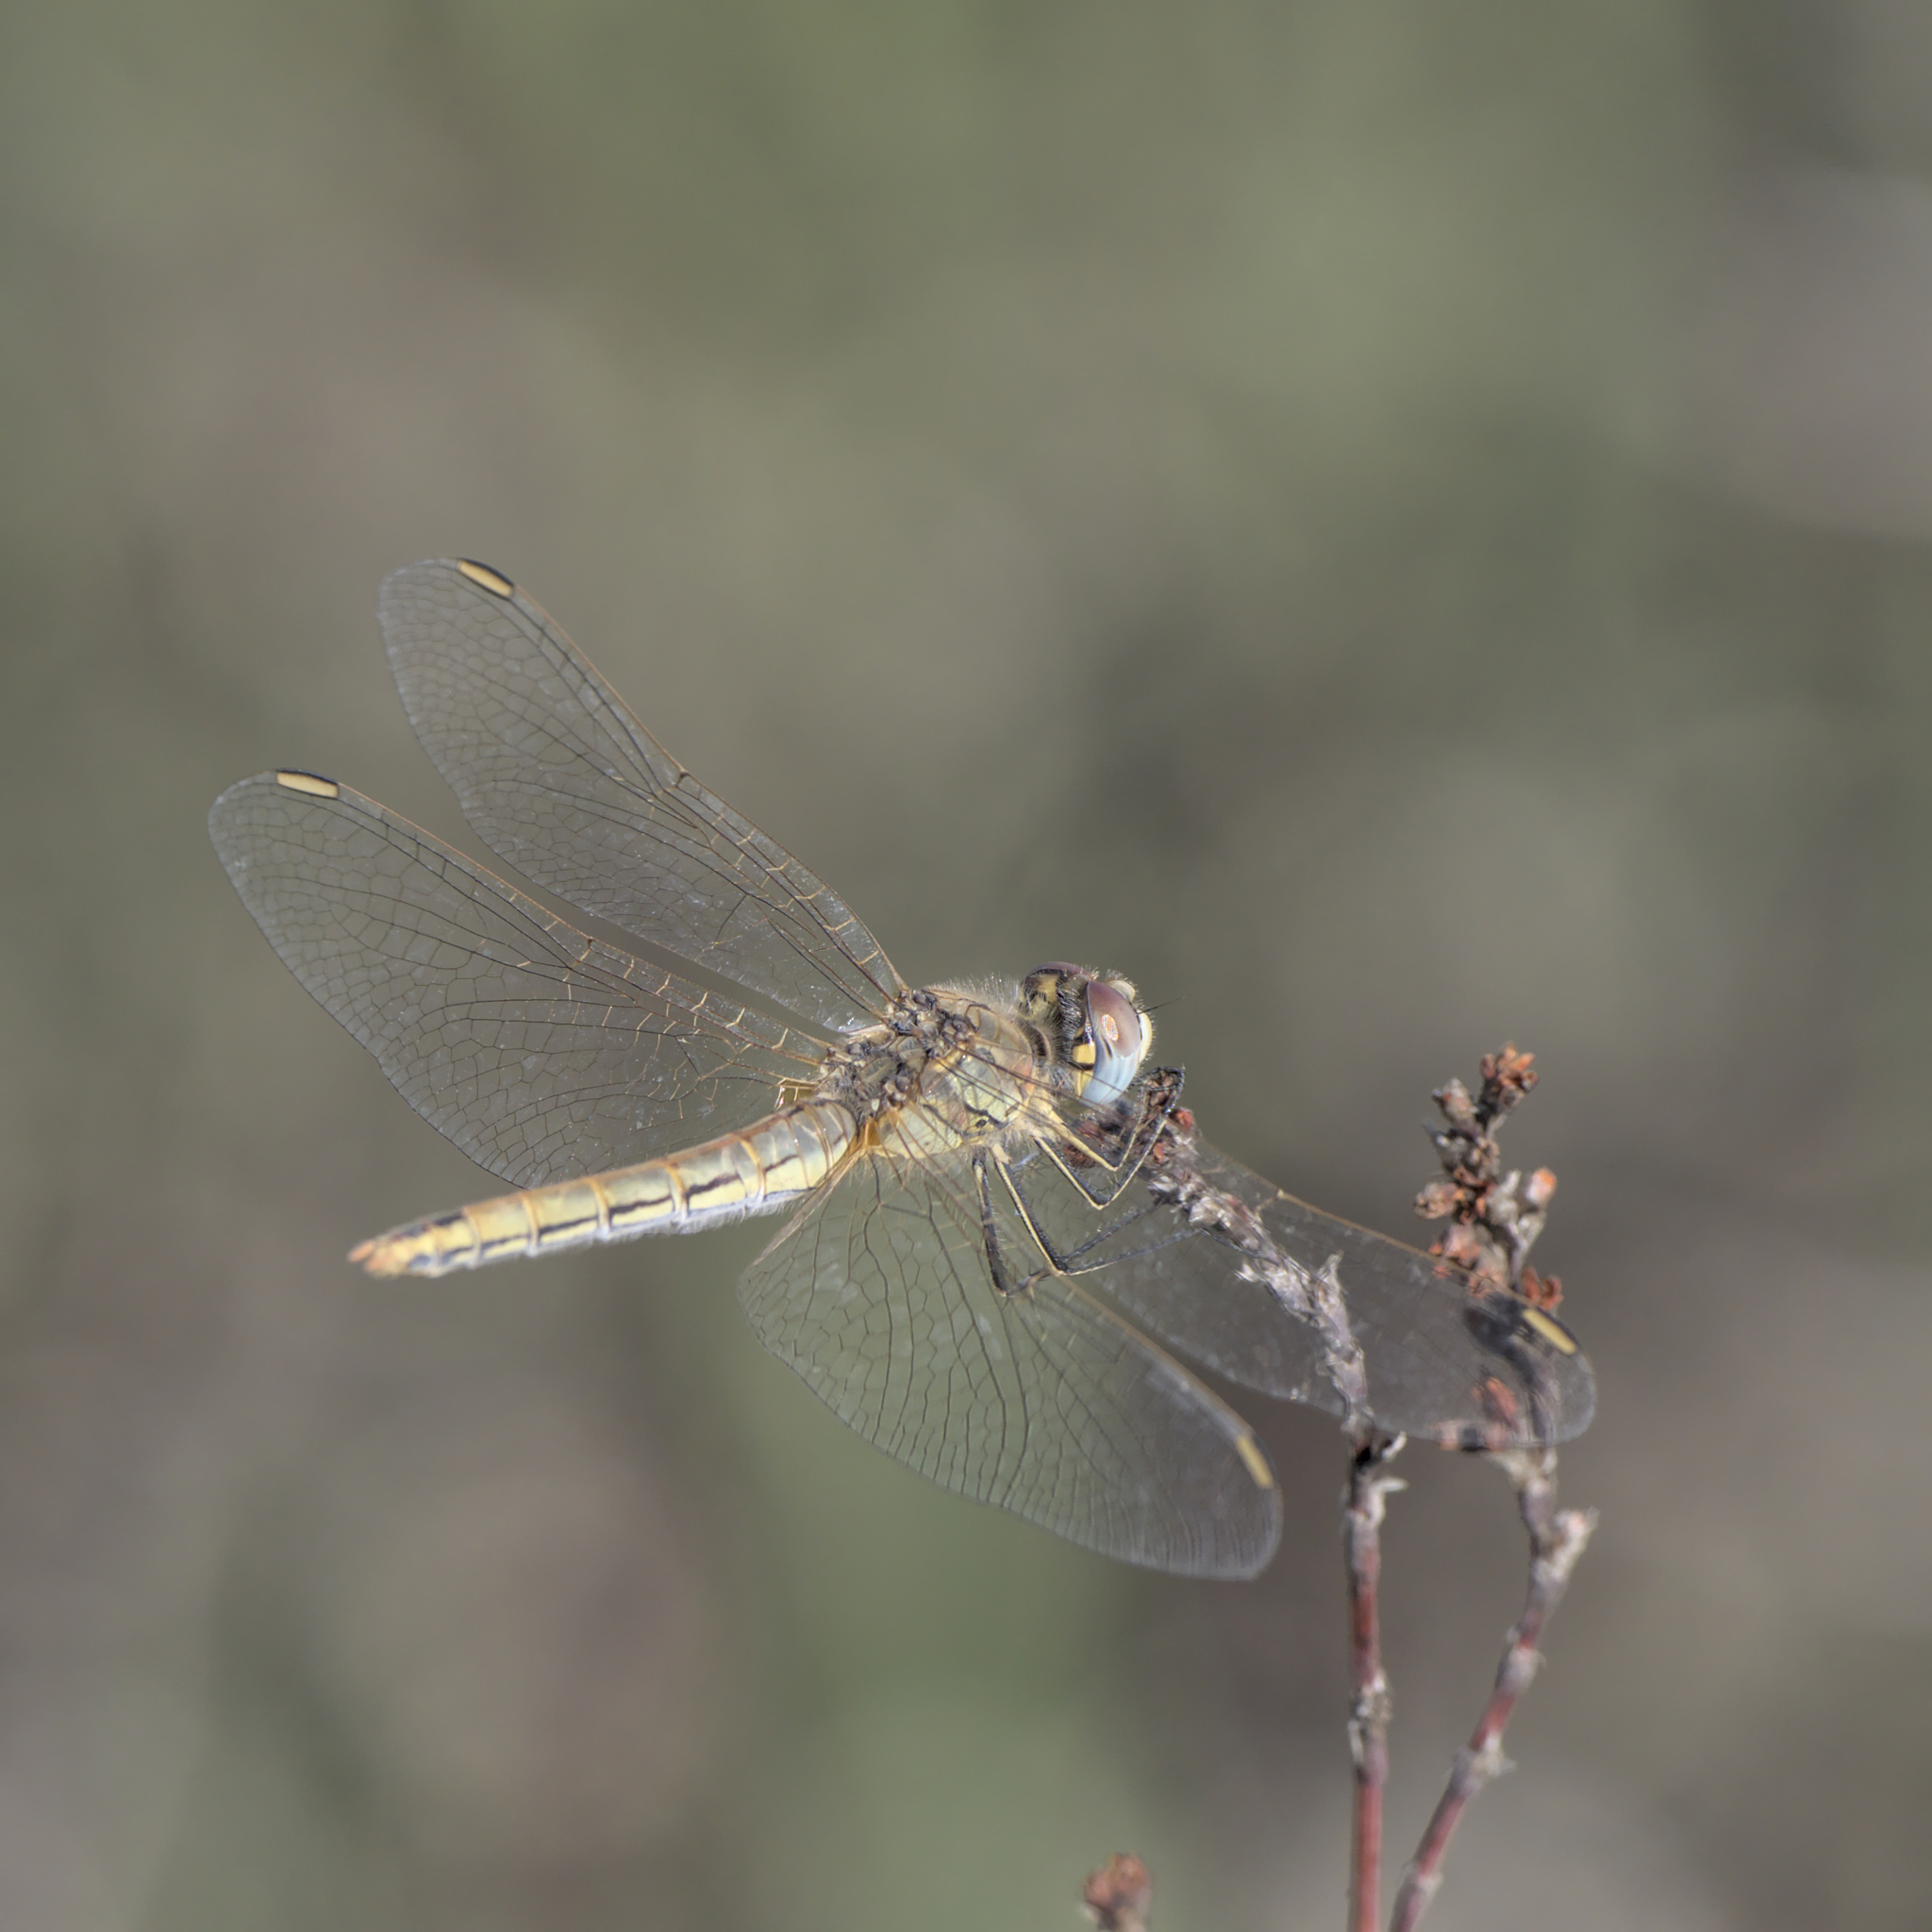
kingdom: Animalia
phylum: Arthropoda
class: Insecta
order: Odonata
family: Libellulidae
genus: Sympetrum
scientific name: Sympetrum fonscolombii
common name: Red-veined darter
